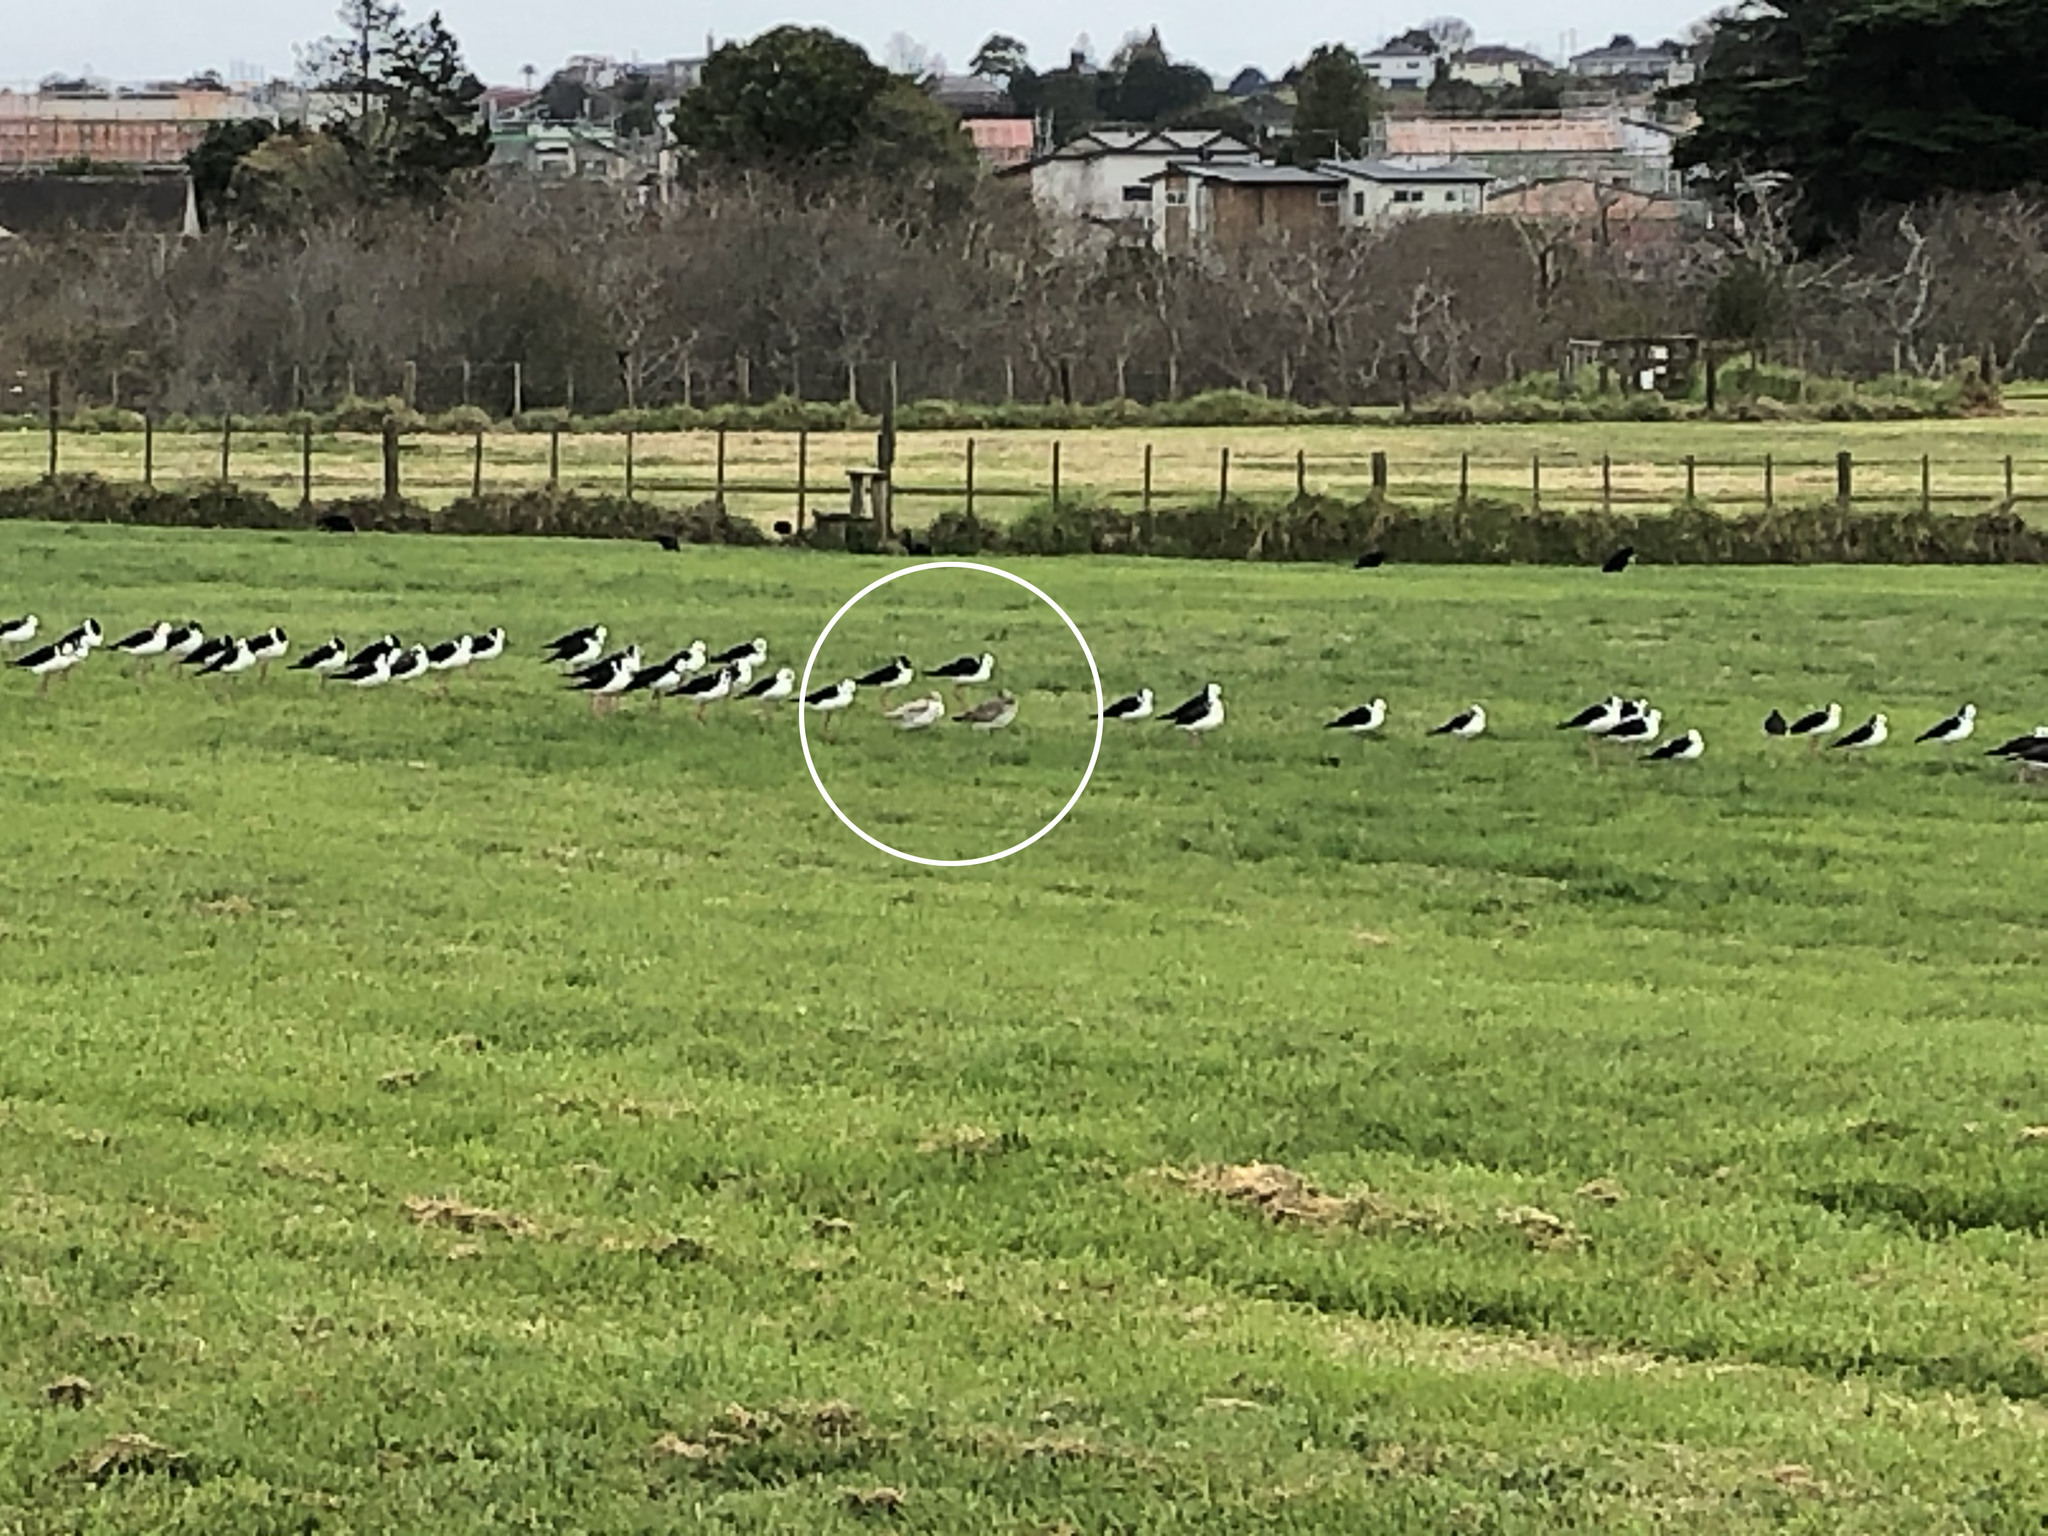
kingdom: Animalia
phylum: Chordata
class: Aves
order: Charadriiformes
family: Scolopacidae
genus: Limosa
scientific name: Limosa lapponica
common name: Bar-tailed godwit
